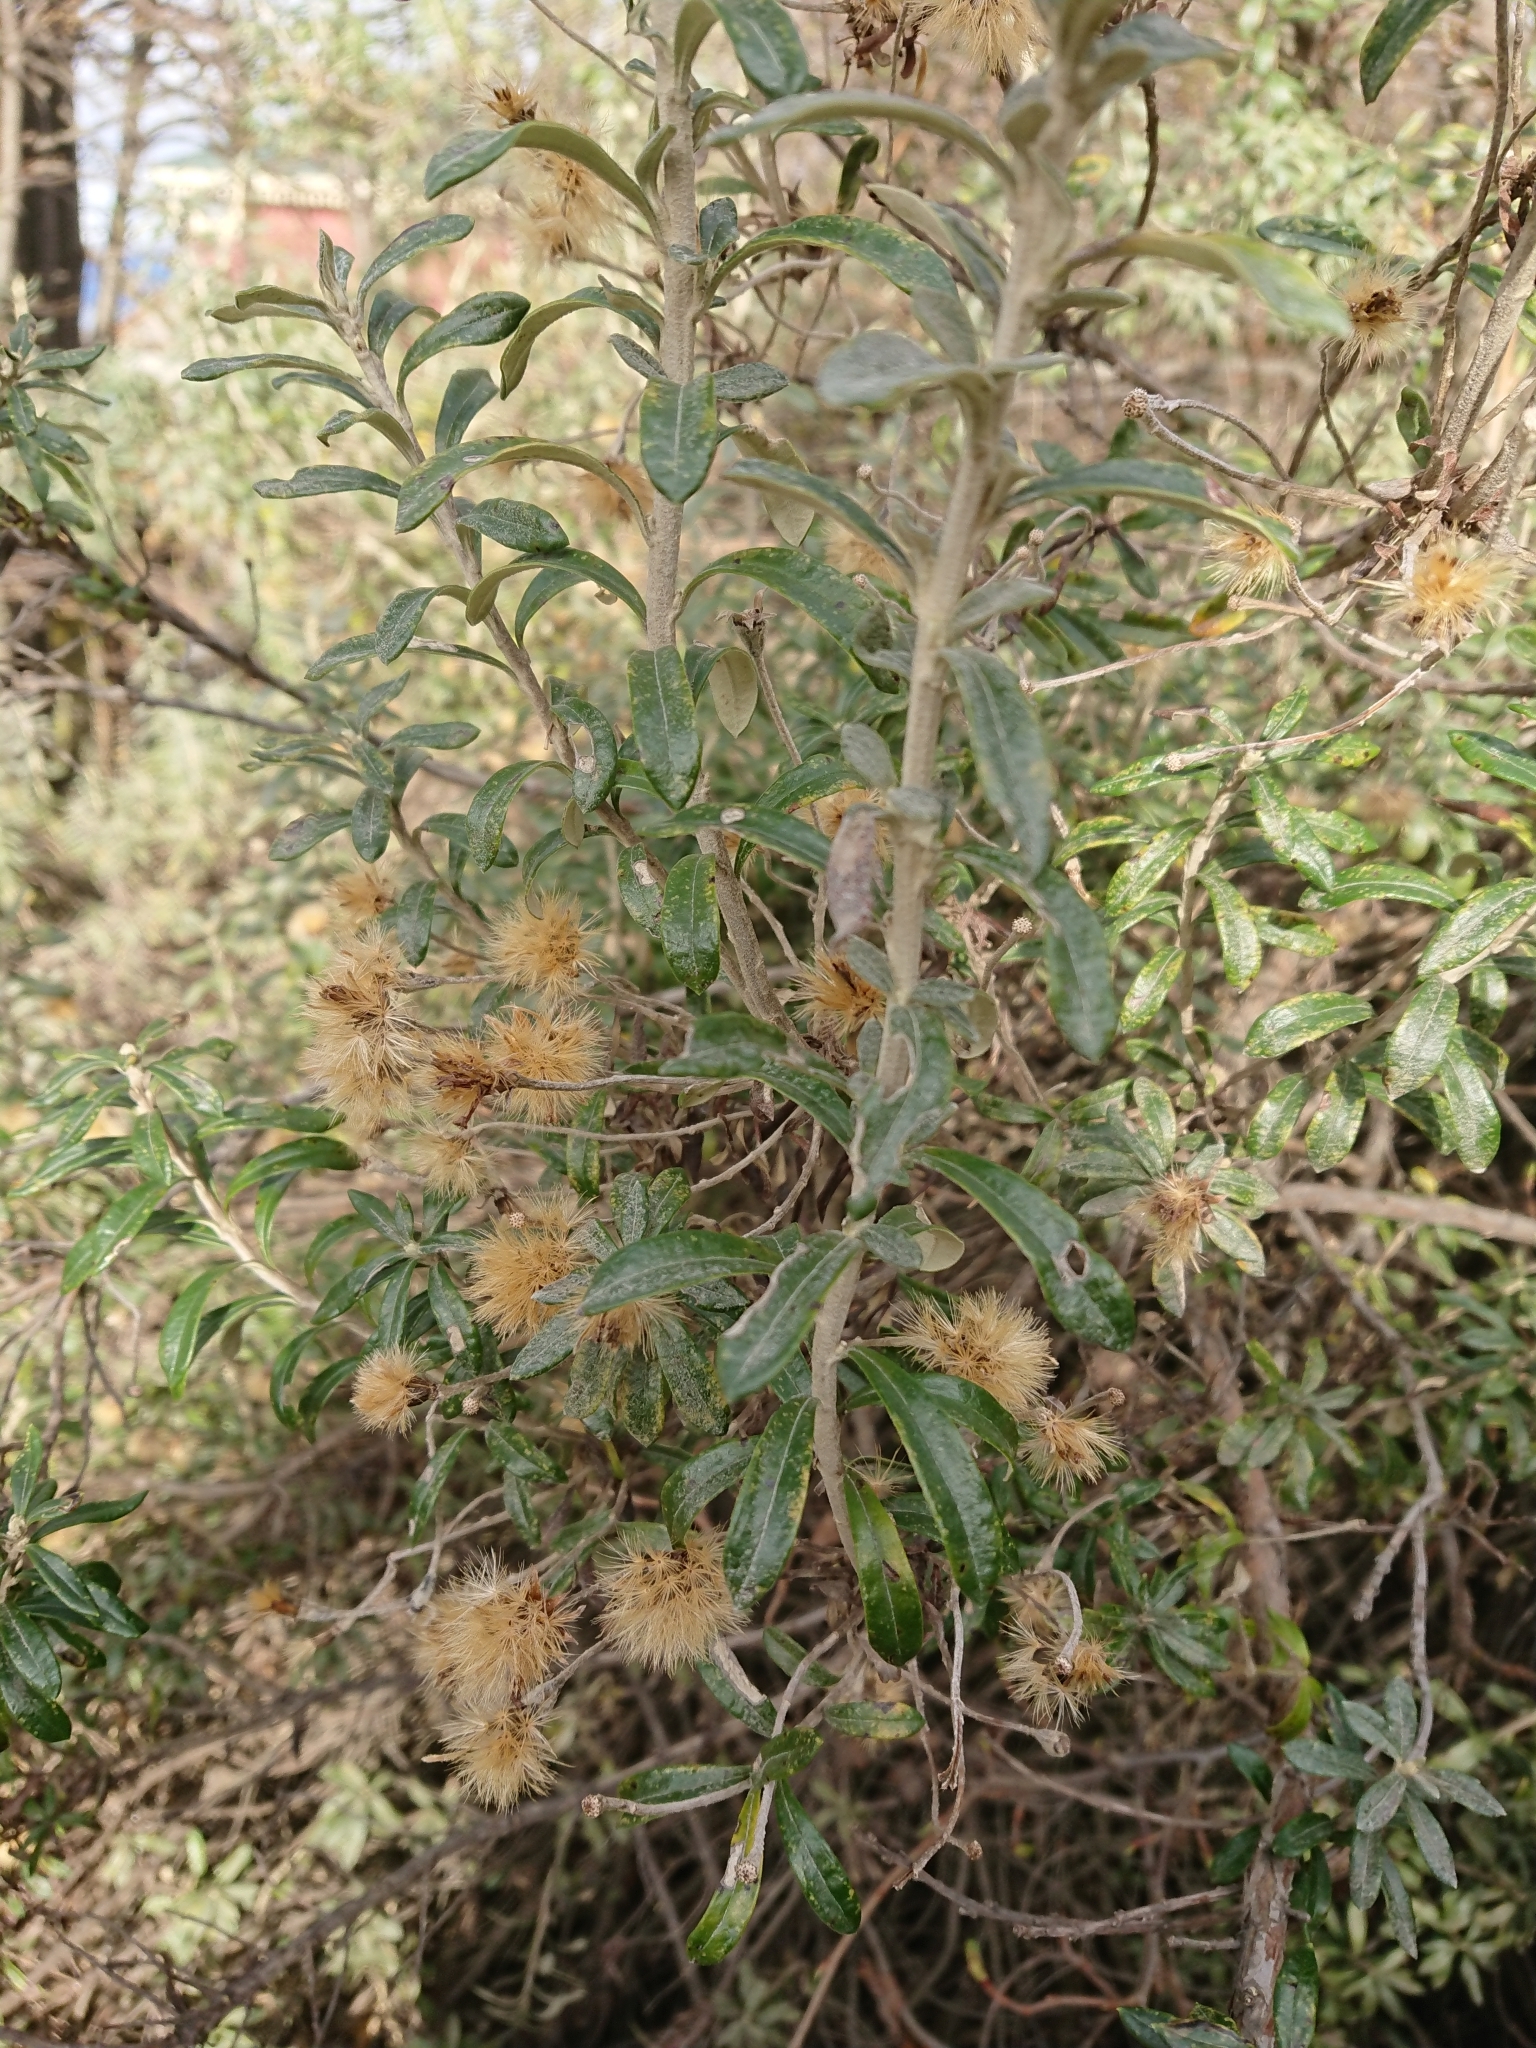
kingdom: Plantae
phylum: Tracheophyta
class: Magnoliopsida
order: Asterales
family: Asteraceae
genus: Chiliotrichum
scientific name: Chiliotrichum diffusum
